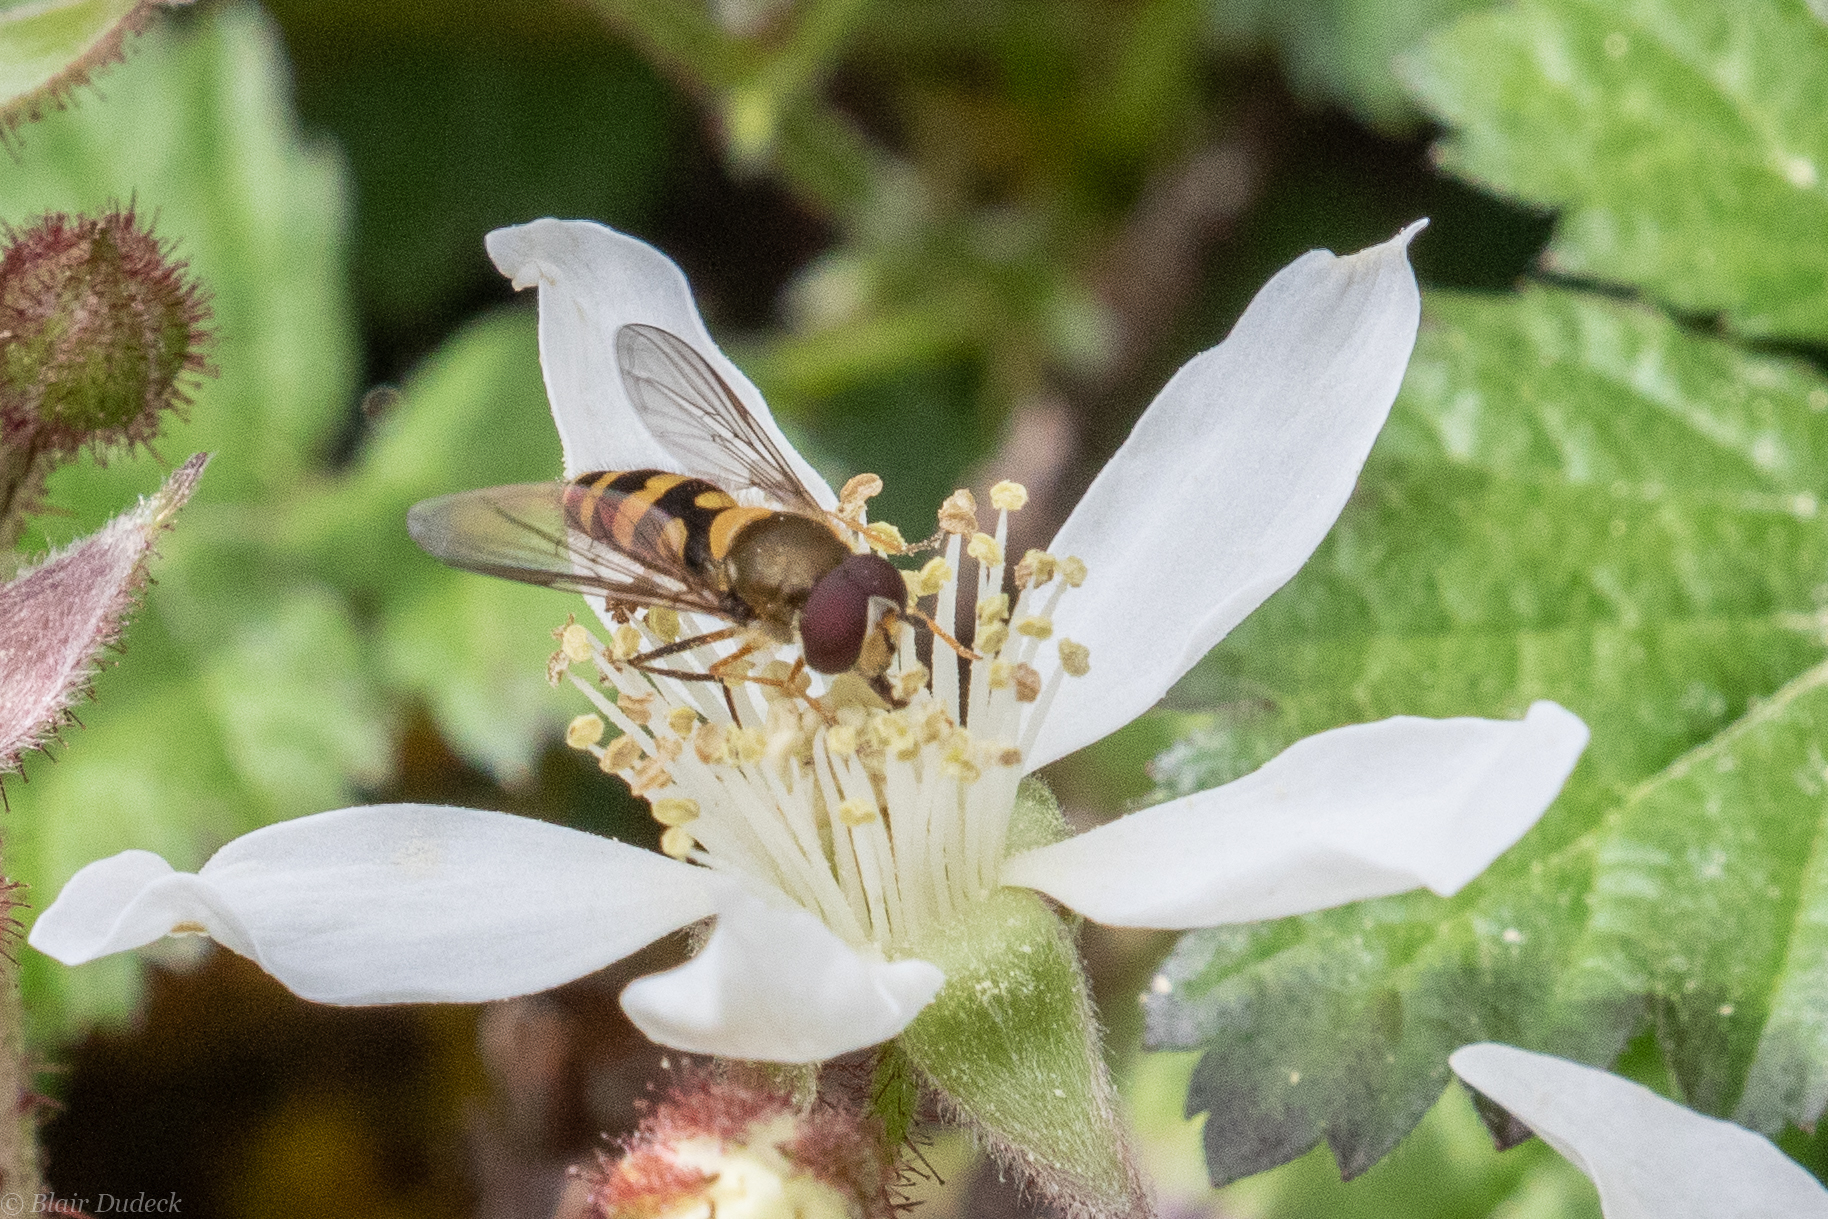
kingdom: Animalia
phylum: Arthropoda
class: Insecta
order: Diptera
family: Syrphidae
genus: Meliscaeva
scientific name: Meliscaeva cinctella
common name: American thintail fly
